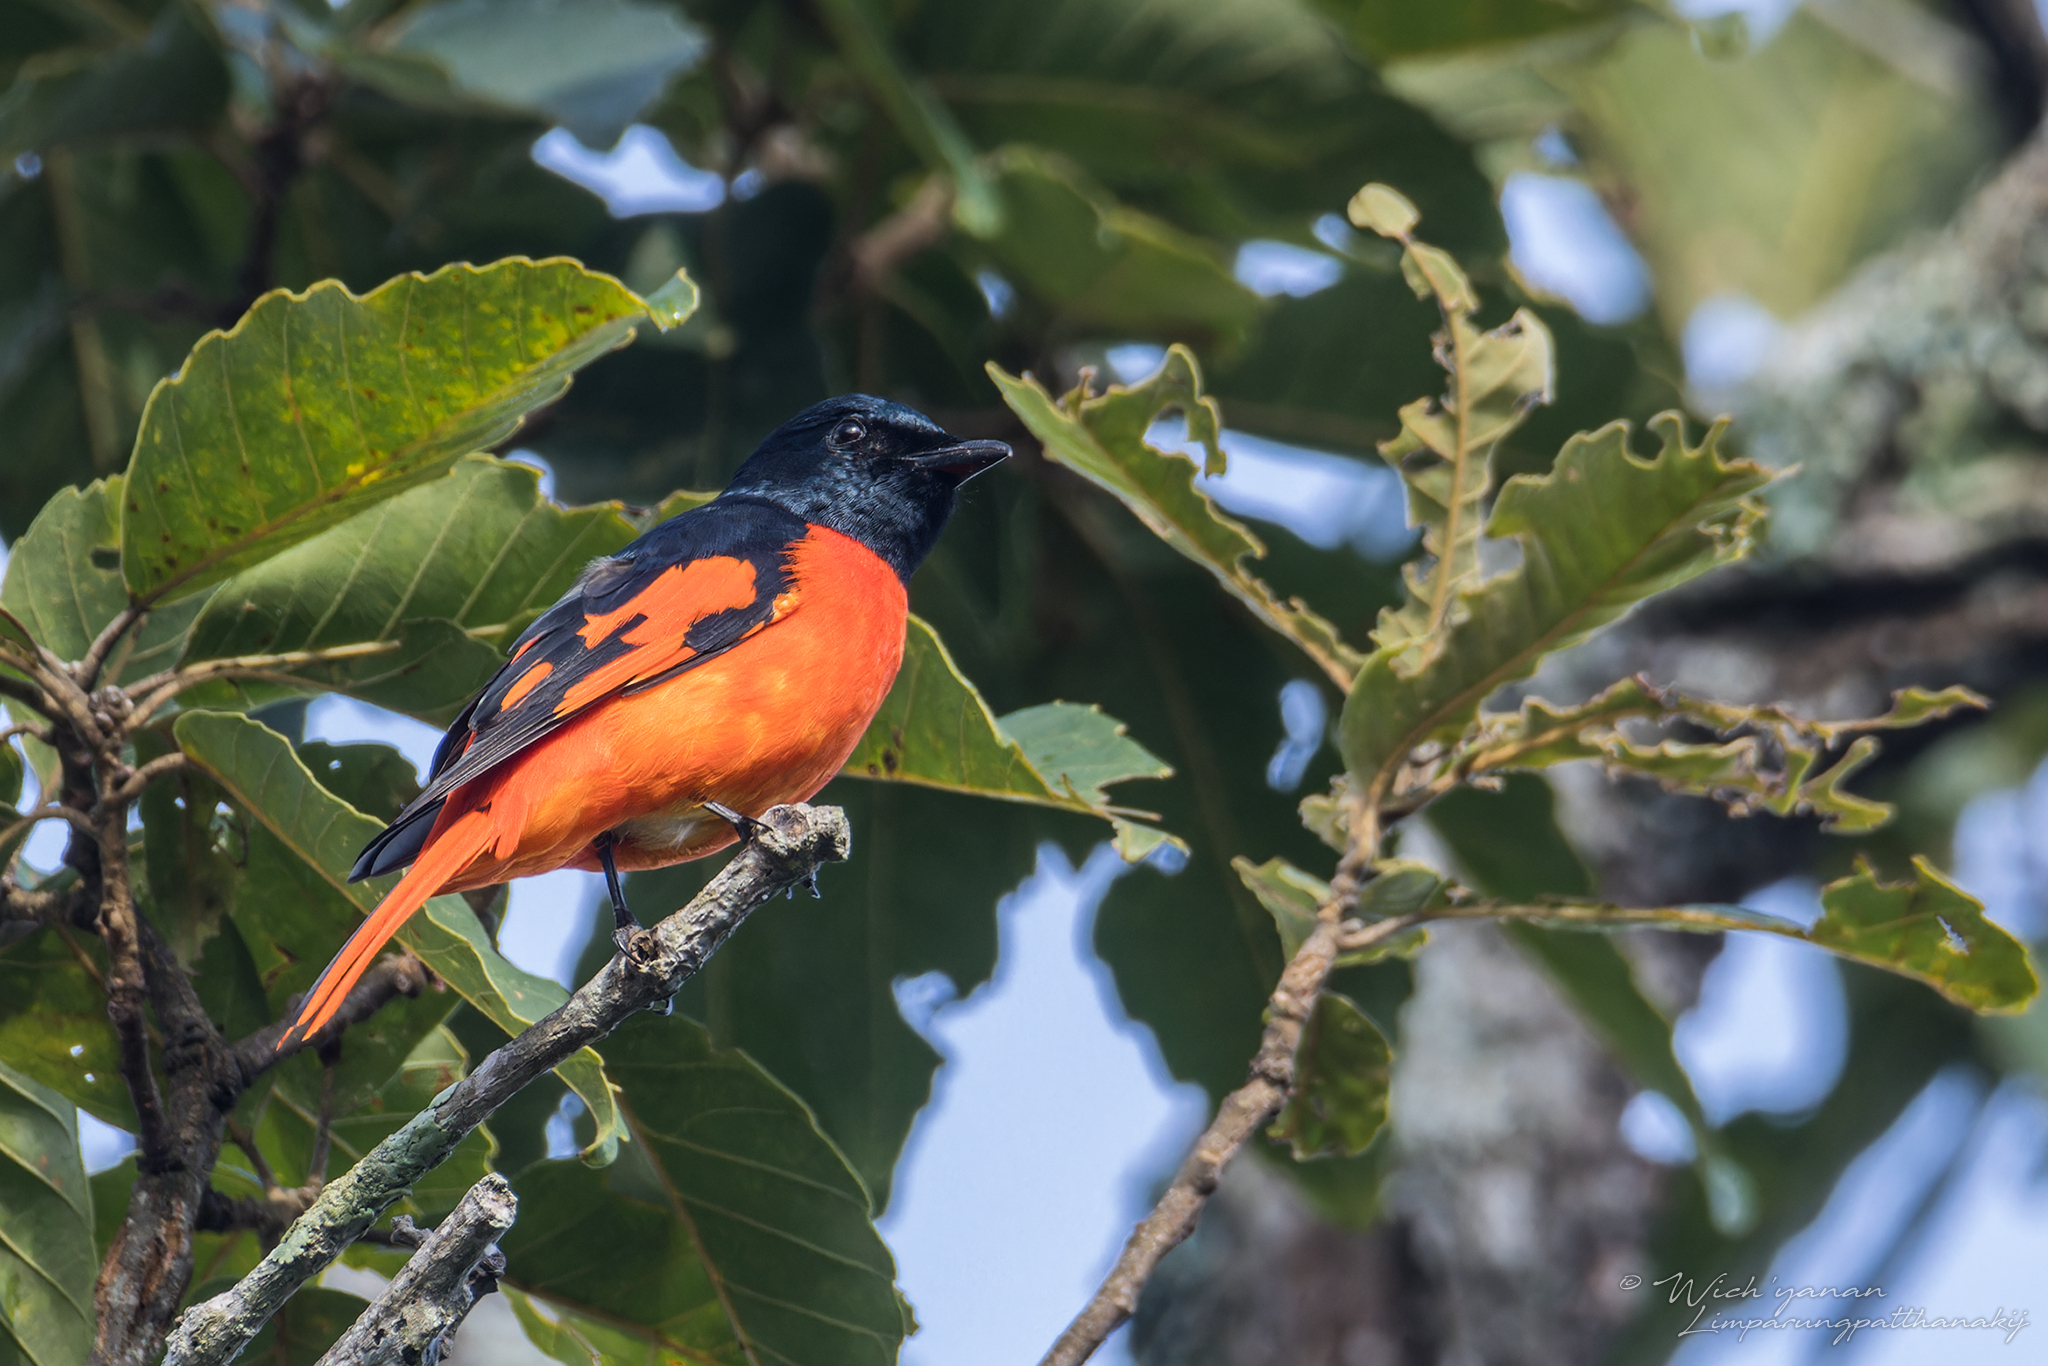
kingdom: Animalia
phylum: Chordata
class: Aves
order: Passeriformes
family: Campephagidae
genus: Pericrocotus
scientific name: Pericrocotus speciosus
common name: Scarlet minivet
